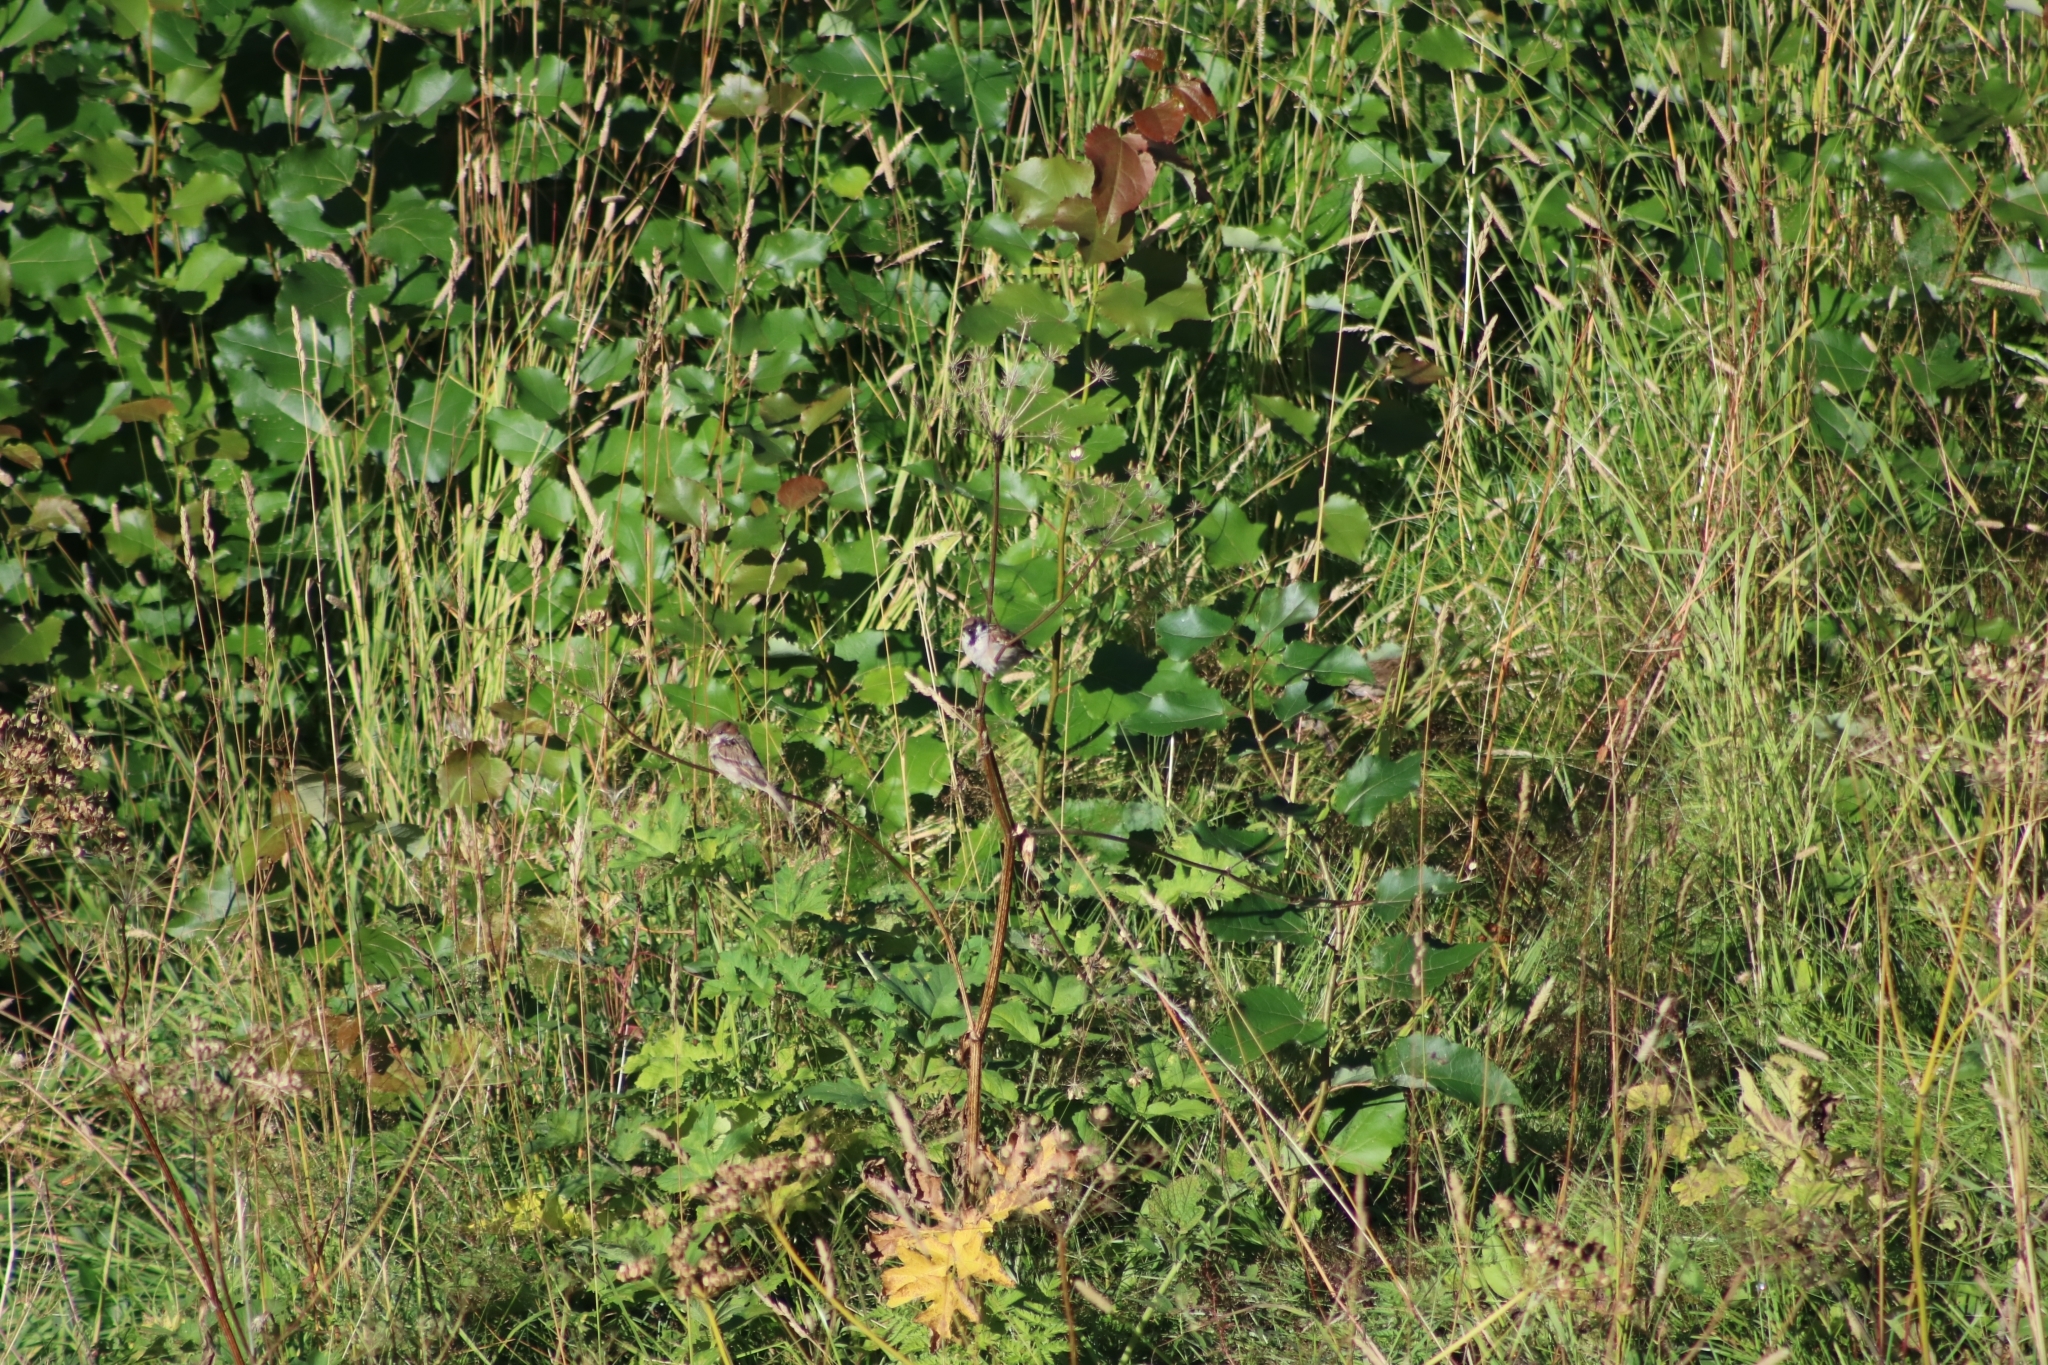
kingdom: Animalia
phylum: Chordata
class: Aves
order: Passeriformes
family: Passeridae
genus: Passer
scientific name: Passer montanus
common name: Eurasian tree sparrow
